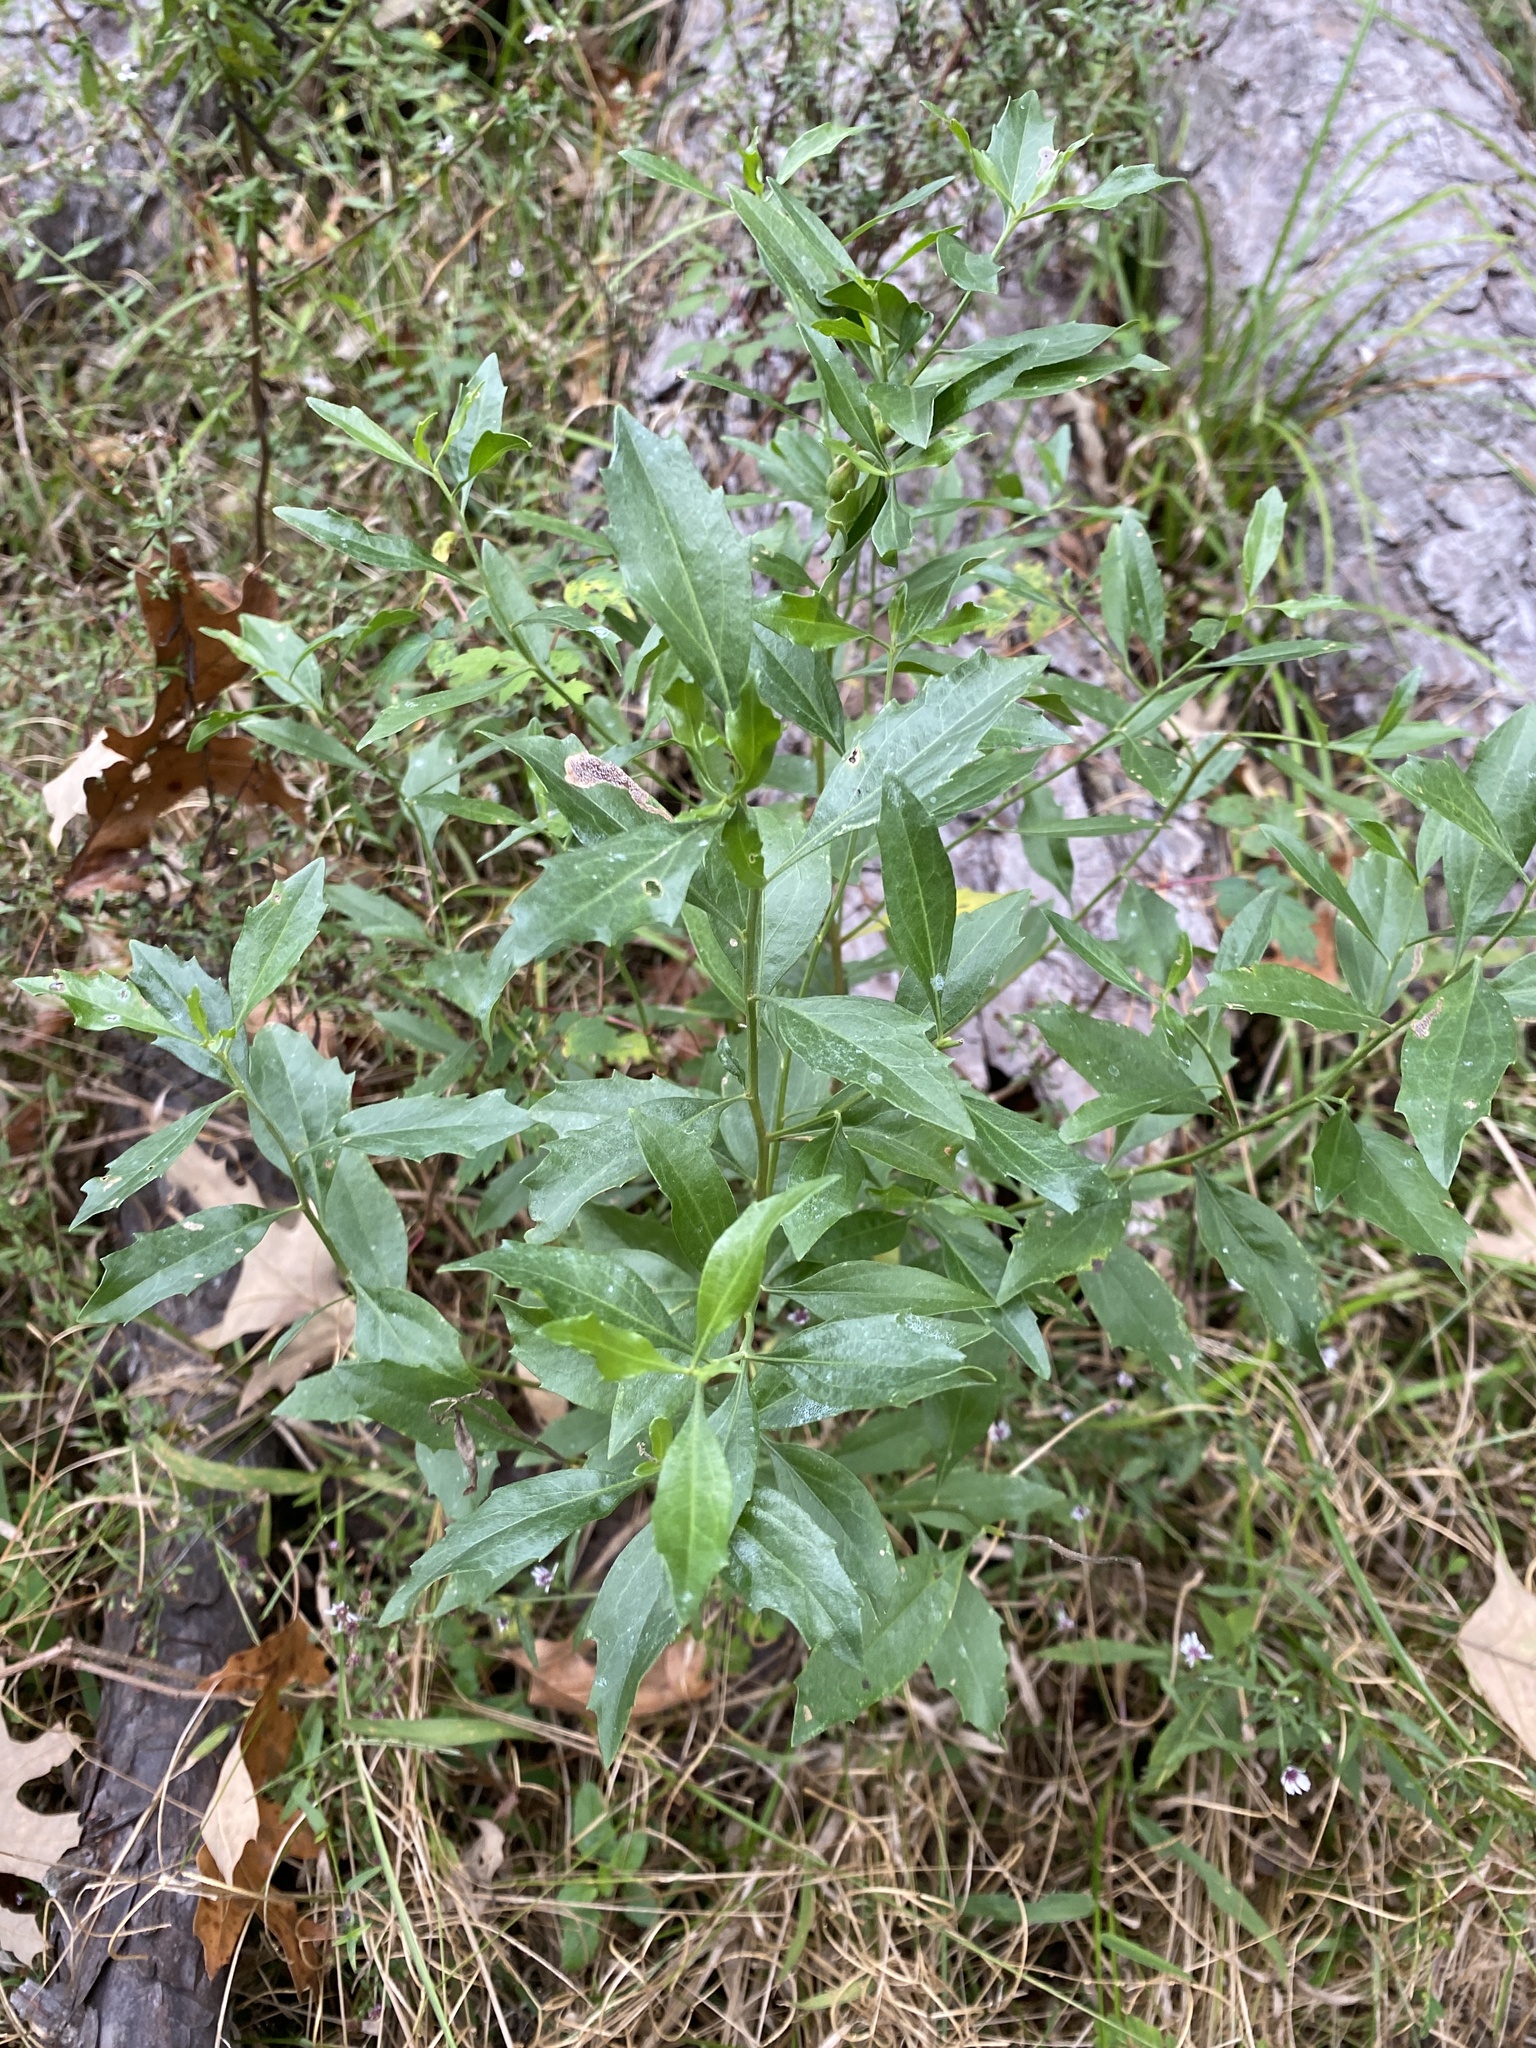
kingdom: Plantae
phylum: Tracheophyta
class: Magnoliopsida
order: Asterales
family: Asteraceae
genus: Baccharis
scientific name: Baccharis halimifolia
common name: Eastern baccharis
